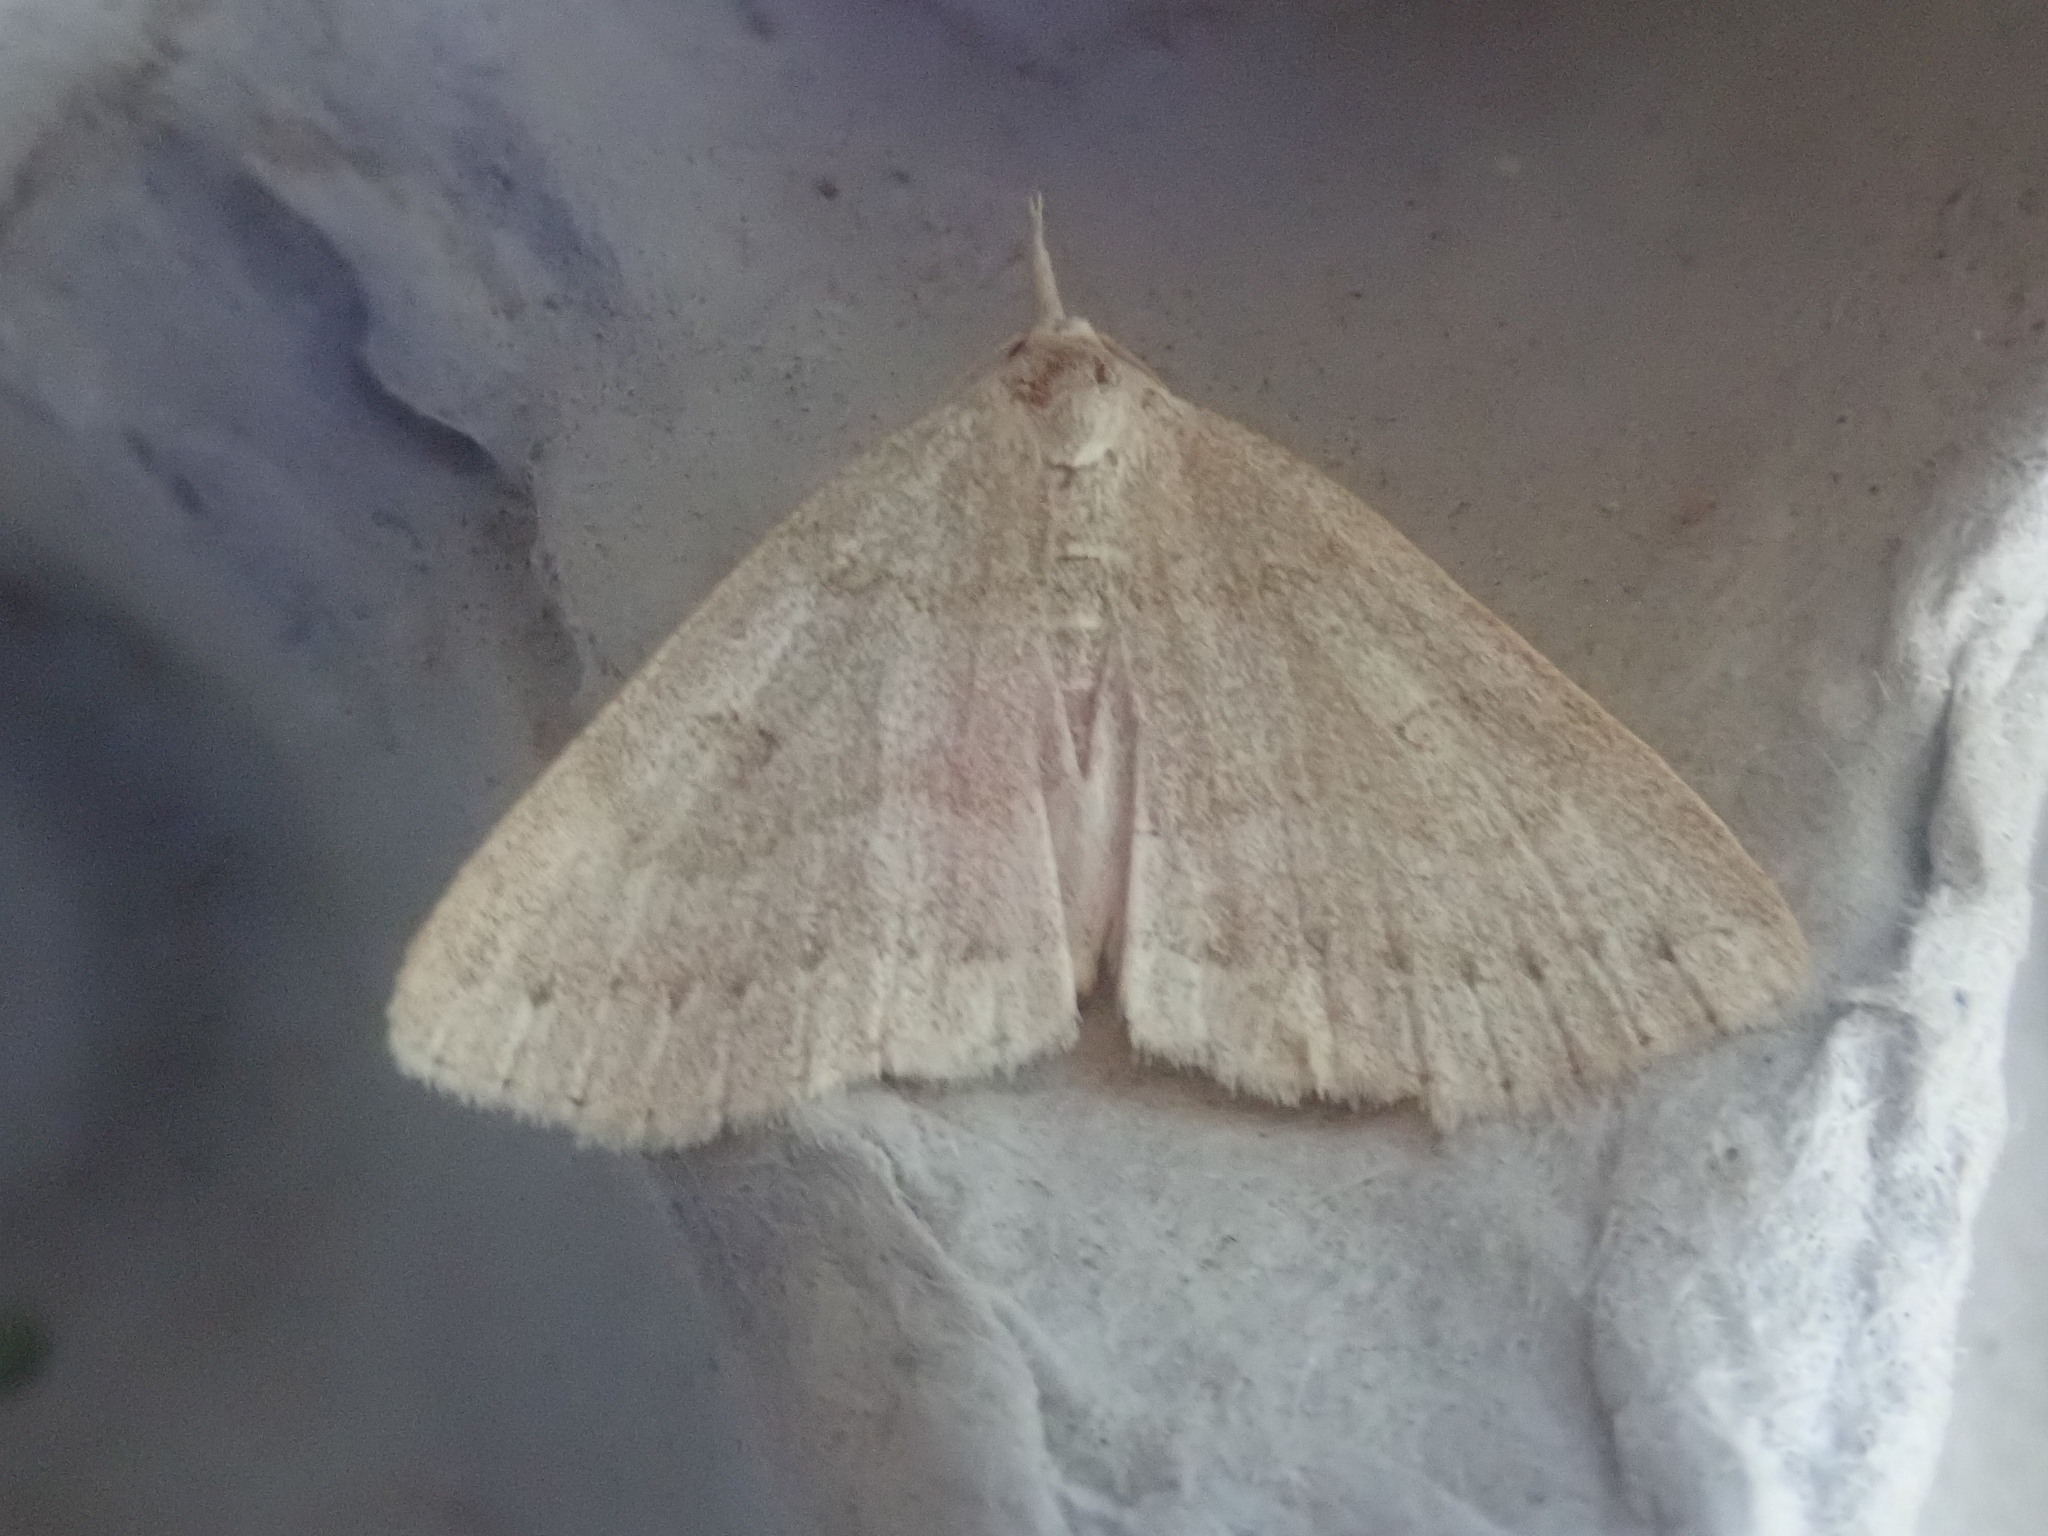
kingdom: Animalia
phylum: Arthropoda
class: Insecta
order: Lepidoptera
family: Erebidae
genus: Macrochilo
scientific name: Macrochilo morbidalis
